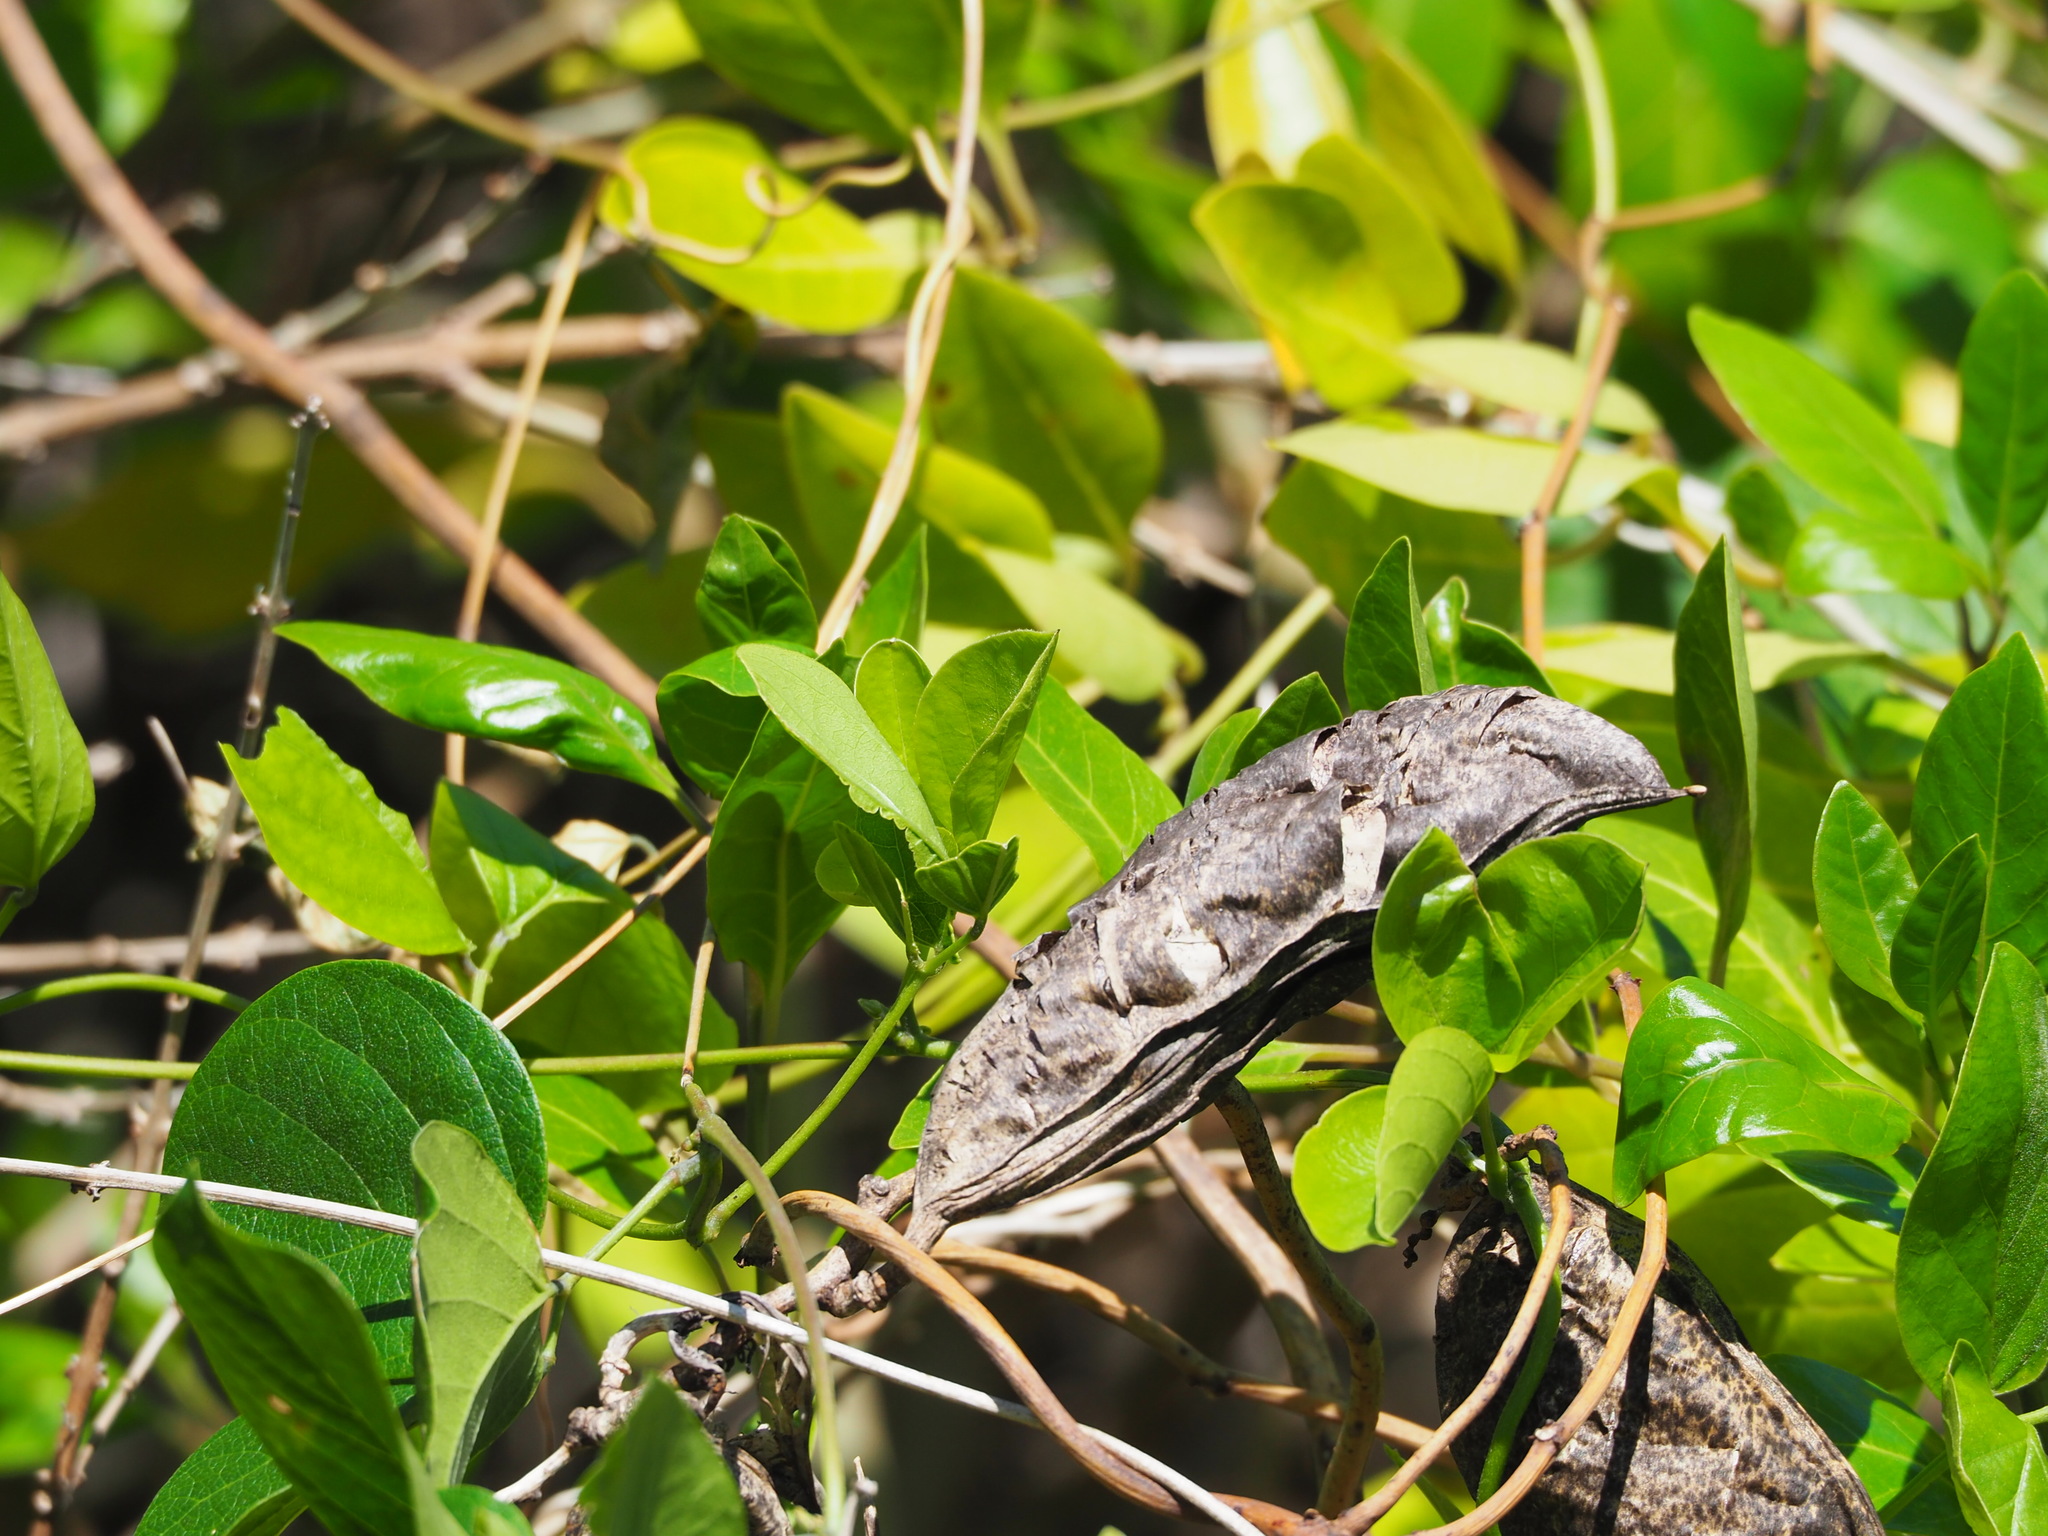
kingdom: Plantae
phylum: Tracheophyta
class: Magnoliopsida
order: Fabales
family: Fabaceae
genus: Canavalia
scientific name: Canavalia lineata
